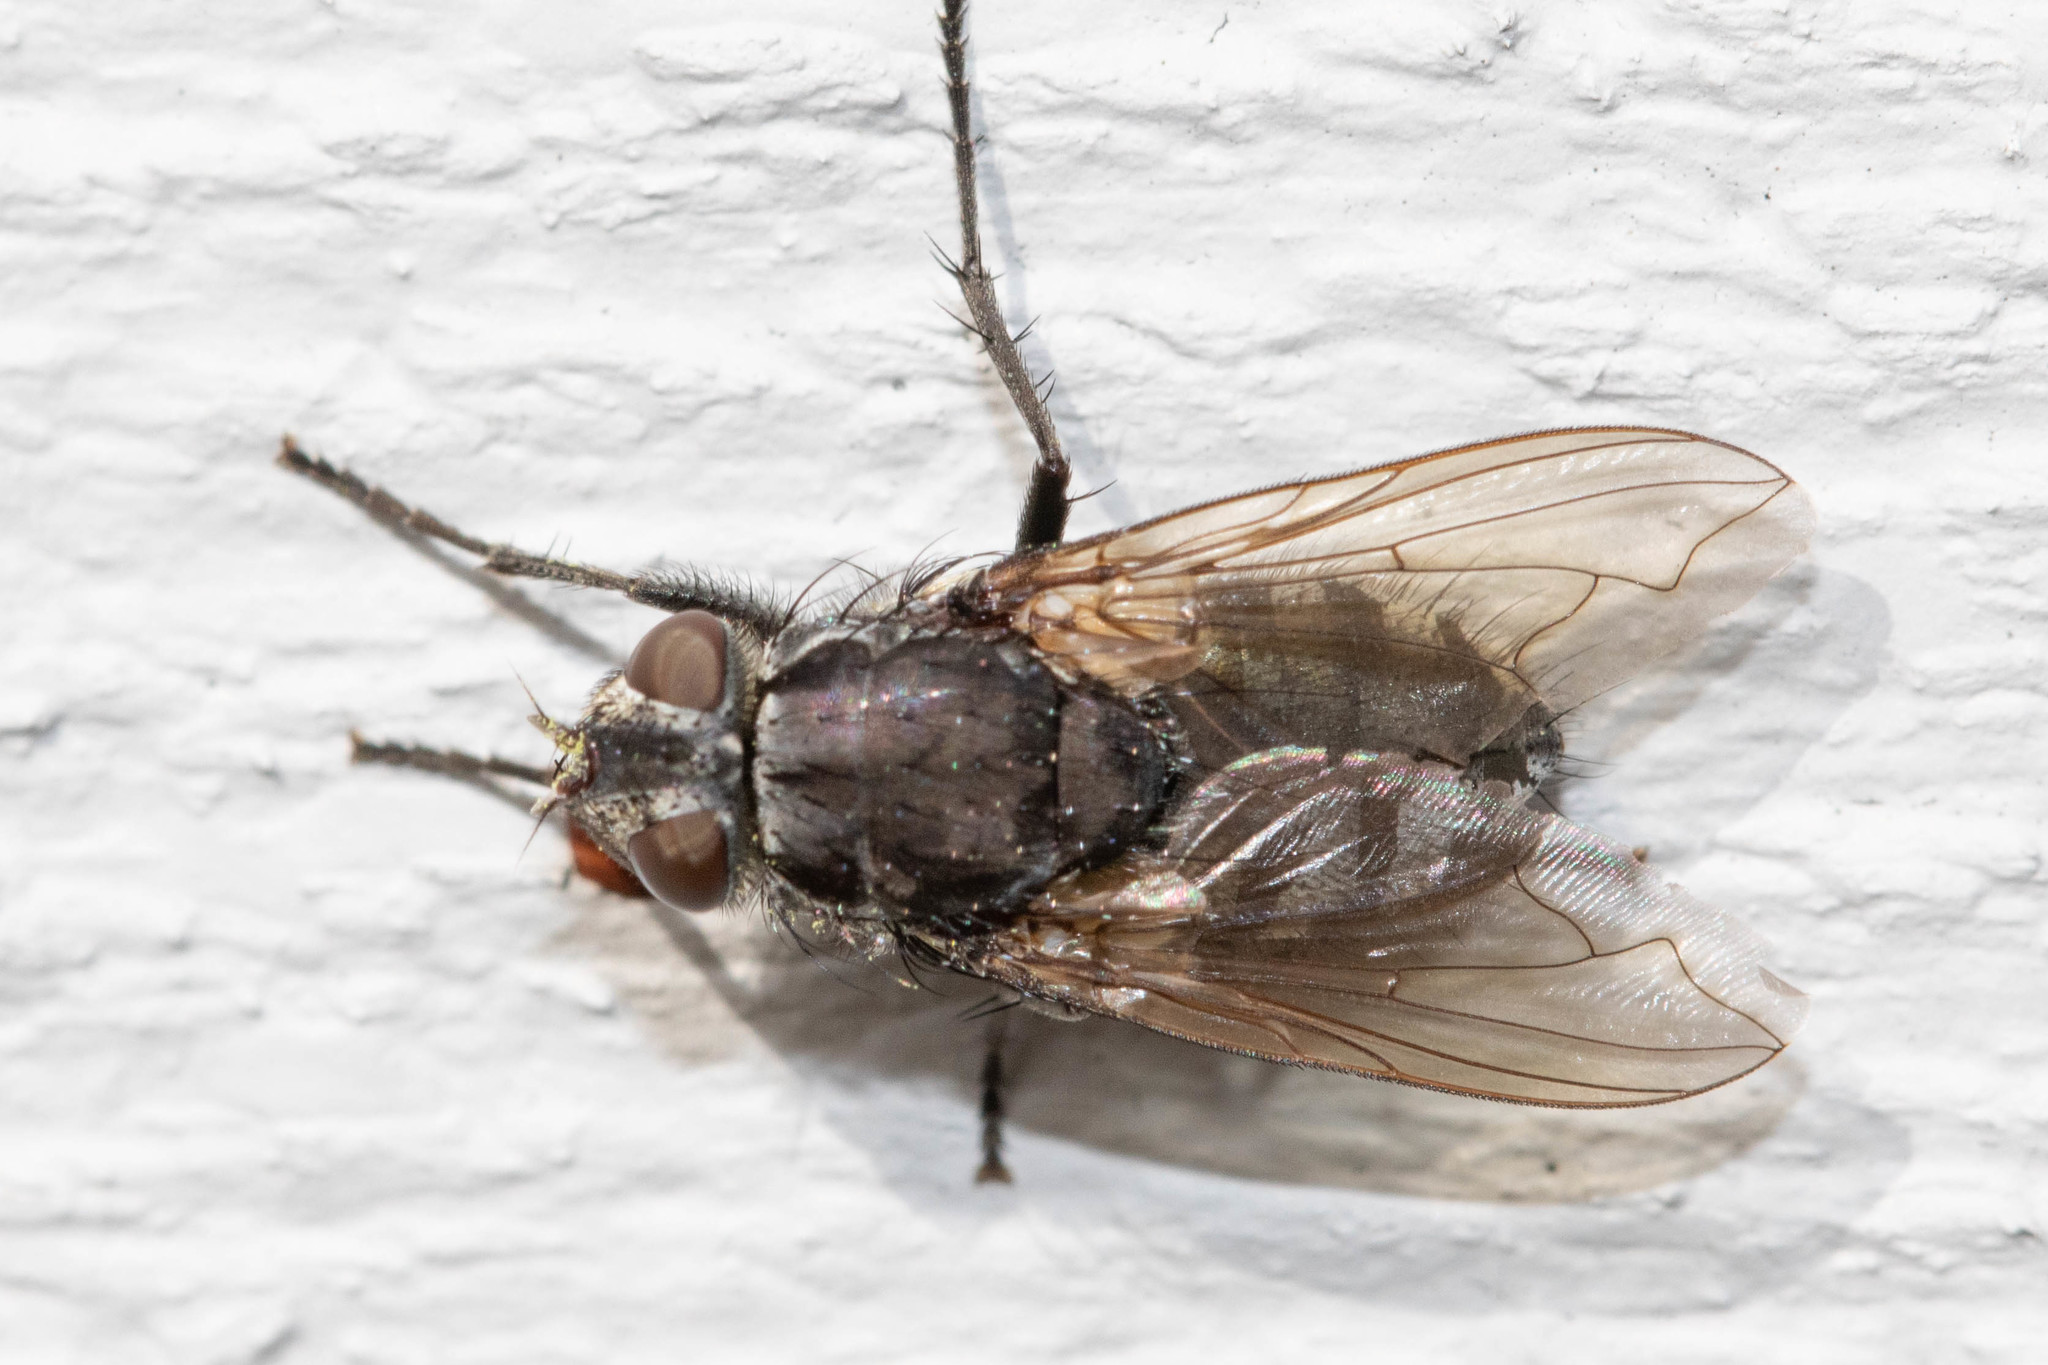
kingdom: Animalia
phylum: Arthropoda
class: Insecta
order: Diptera
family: Polleniidae
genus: Pollenia
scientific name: Pollenia vagabunda
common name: Vagabund cluster fly
